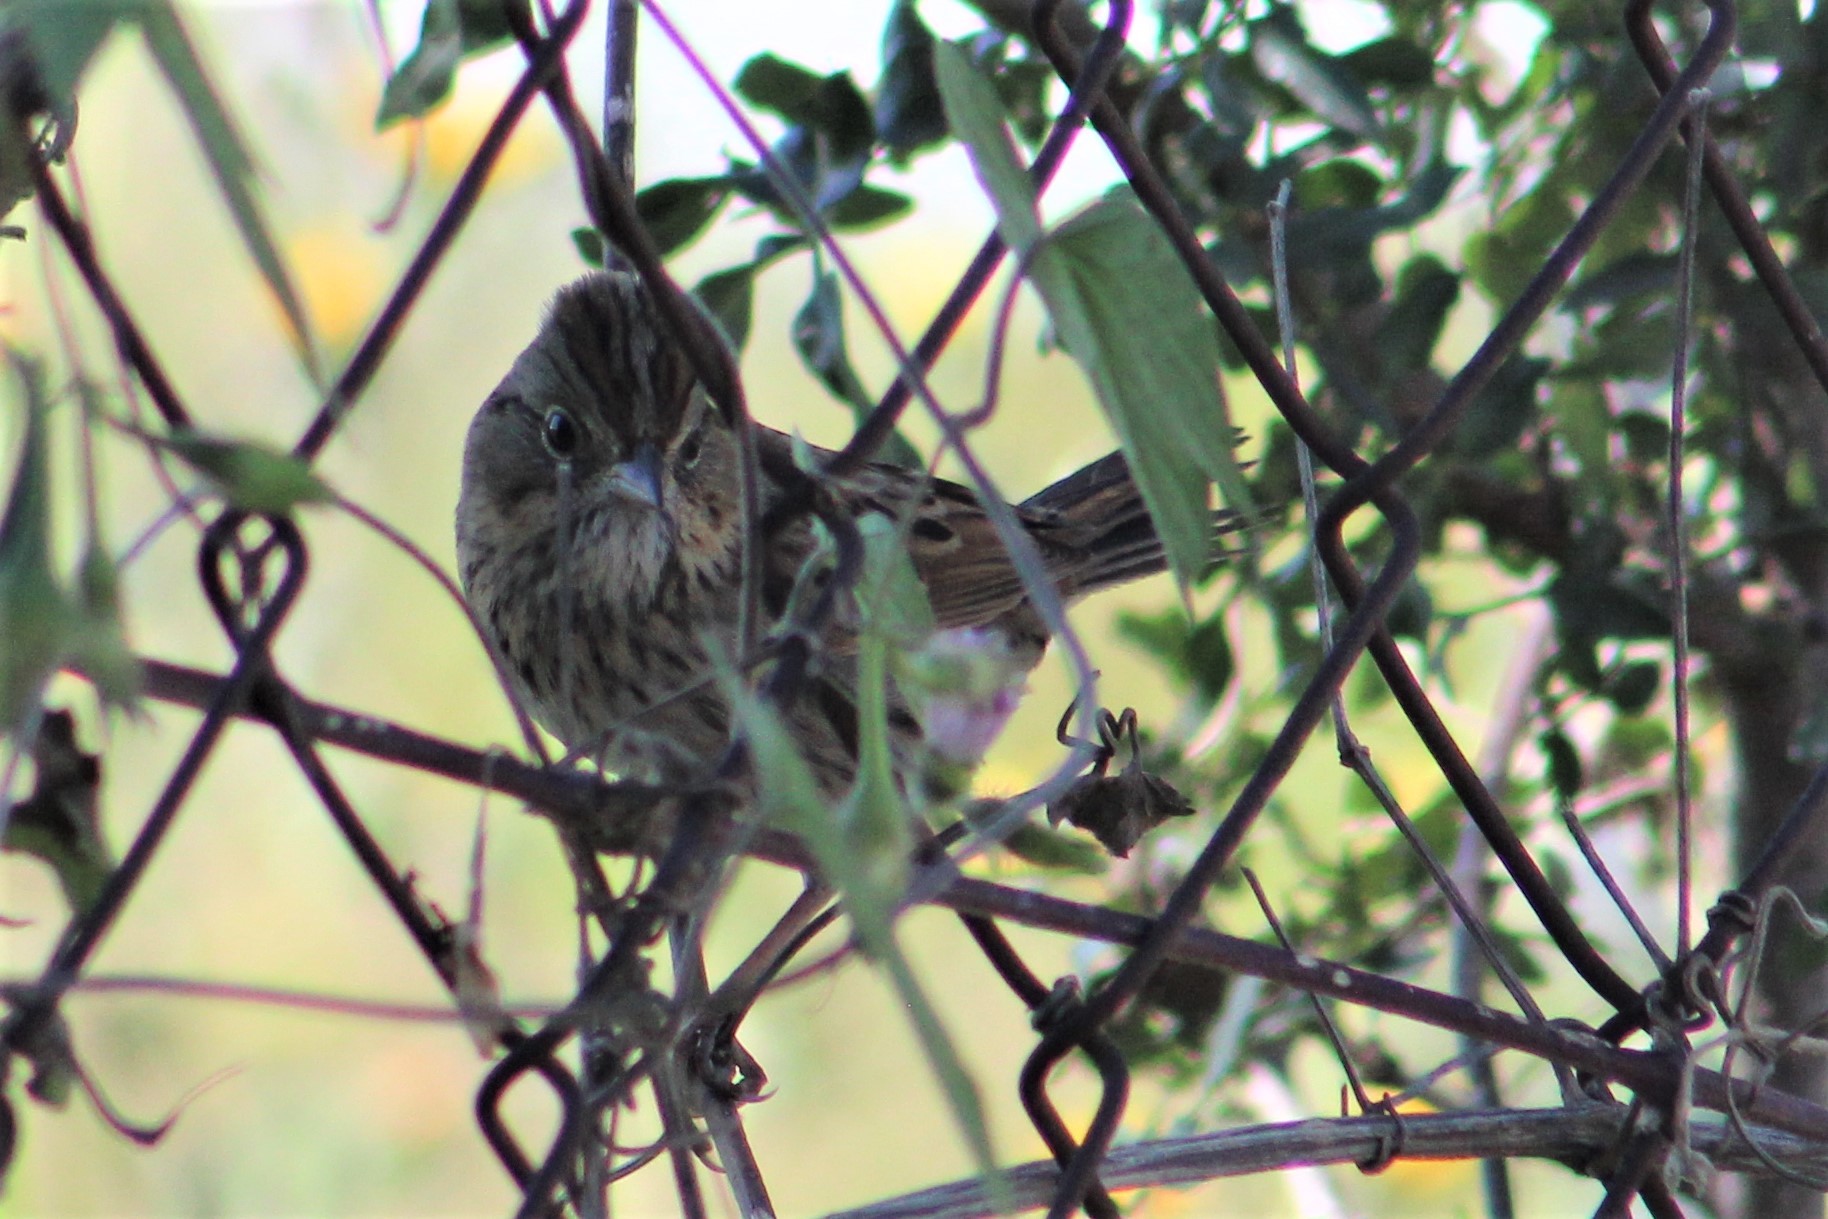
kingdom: Animalia
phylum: Chordata
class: Aves
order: Passeriformes
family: Passerellidae
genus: Melospiza
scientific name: Melospiza lincolnii
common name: Lincoln's sparrow
